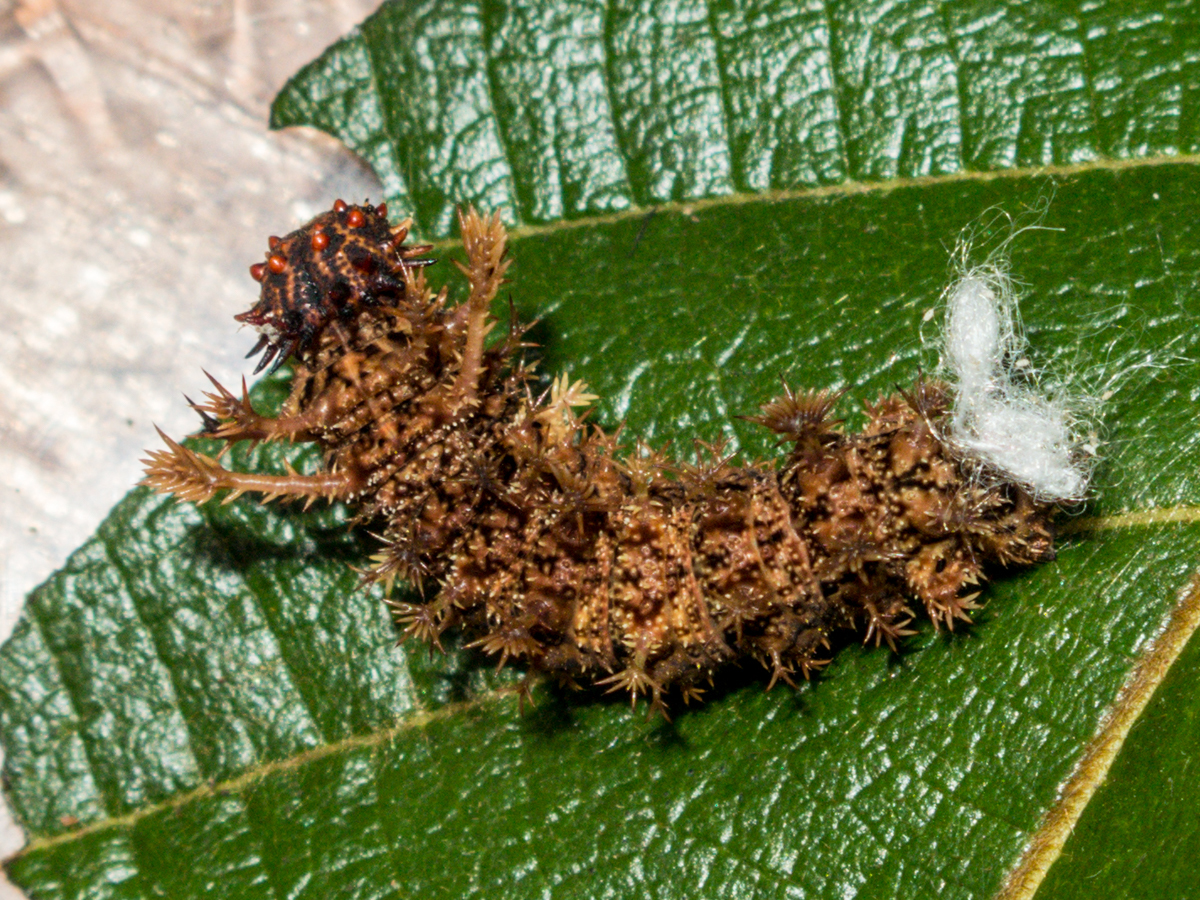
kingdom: Animalia
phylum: Arthropoda
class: Insecta
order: Lepidoptera
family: Nymphalidae
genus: Limenitis
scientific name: Limenitis Moduza procris
